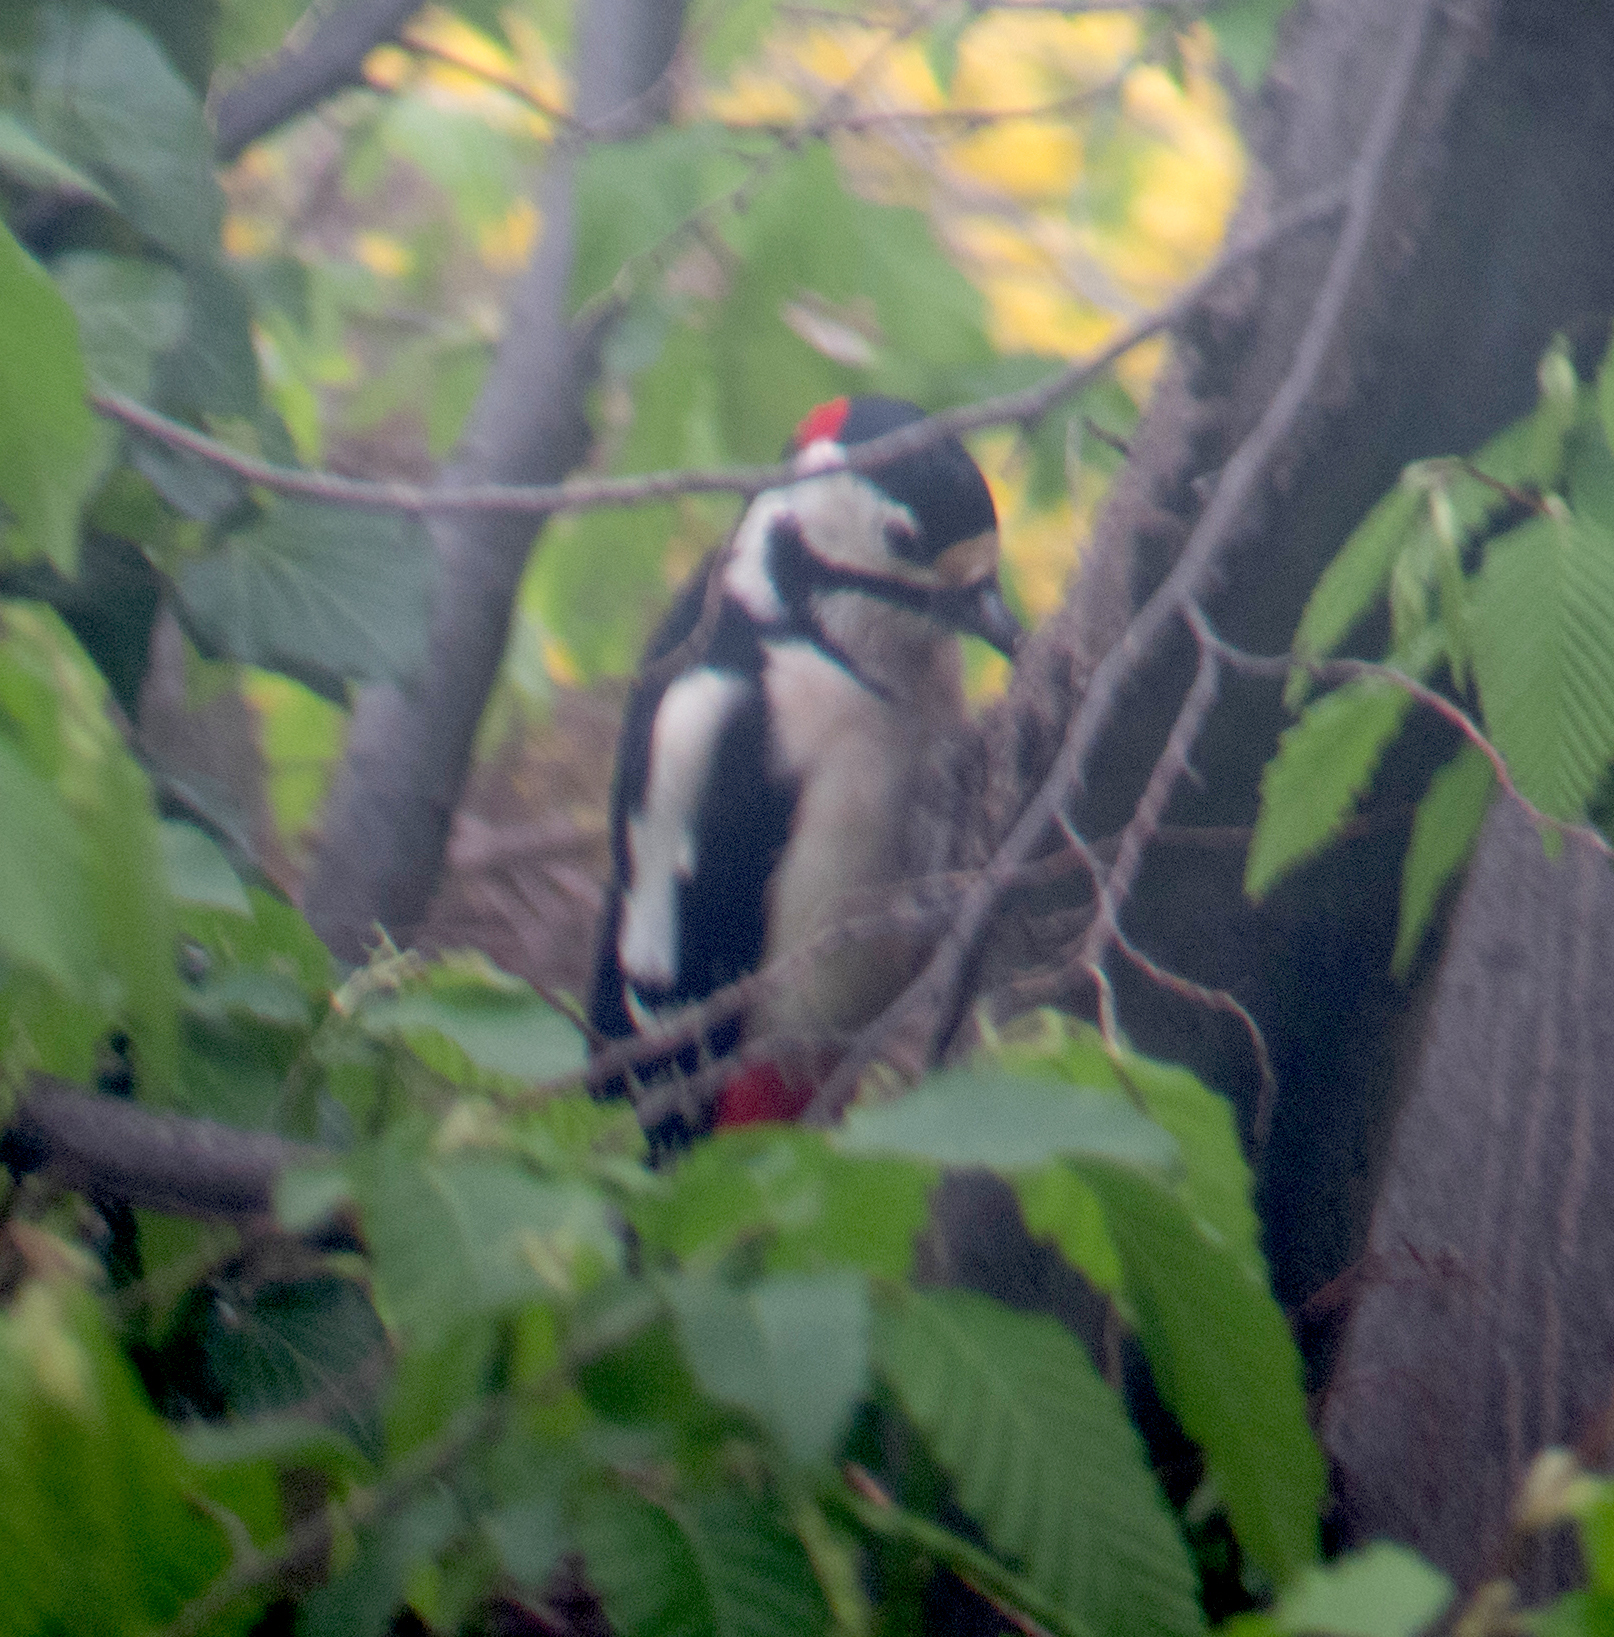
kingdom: Animalia
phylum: Chordata
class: Aves
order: Piciformes
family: Picidae
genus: Dendrocopos
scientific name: Dendrocopos major
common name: Great spotted woodpecker
